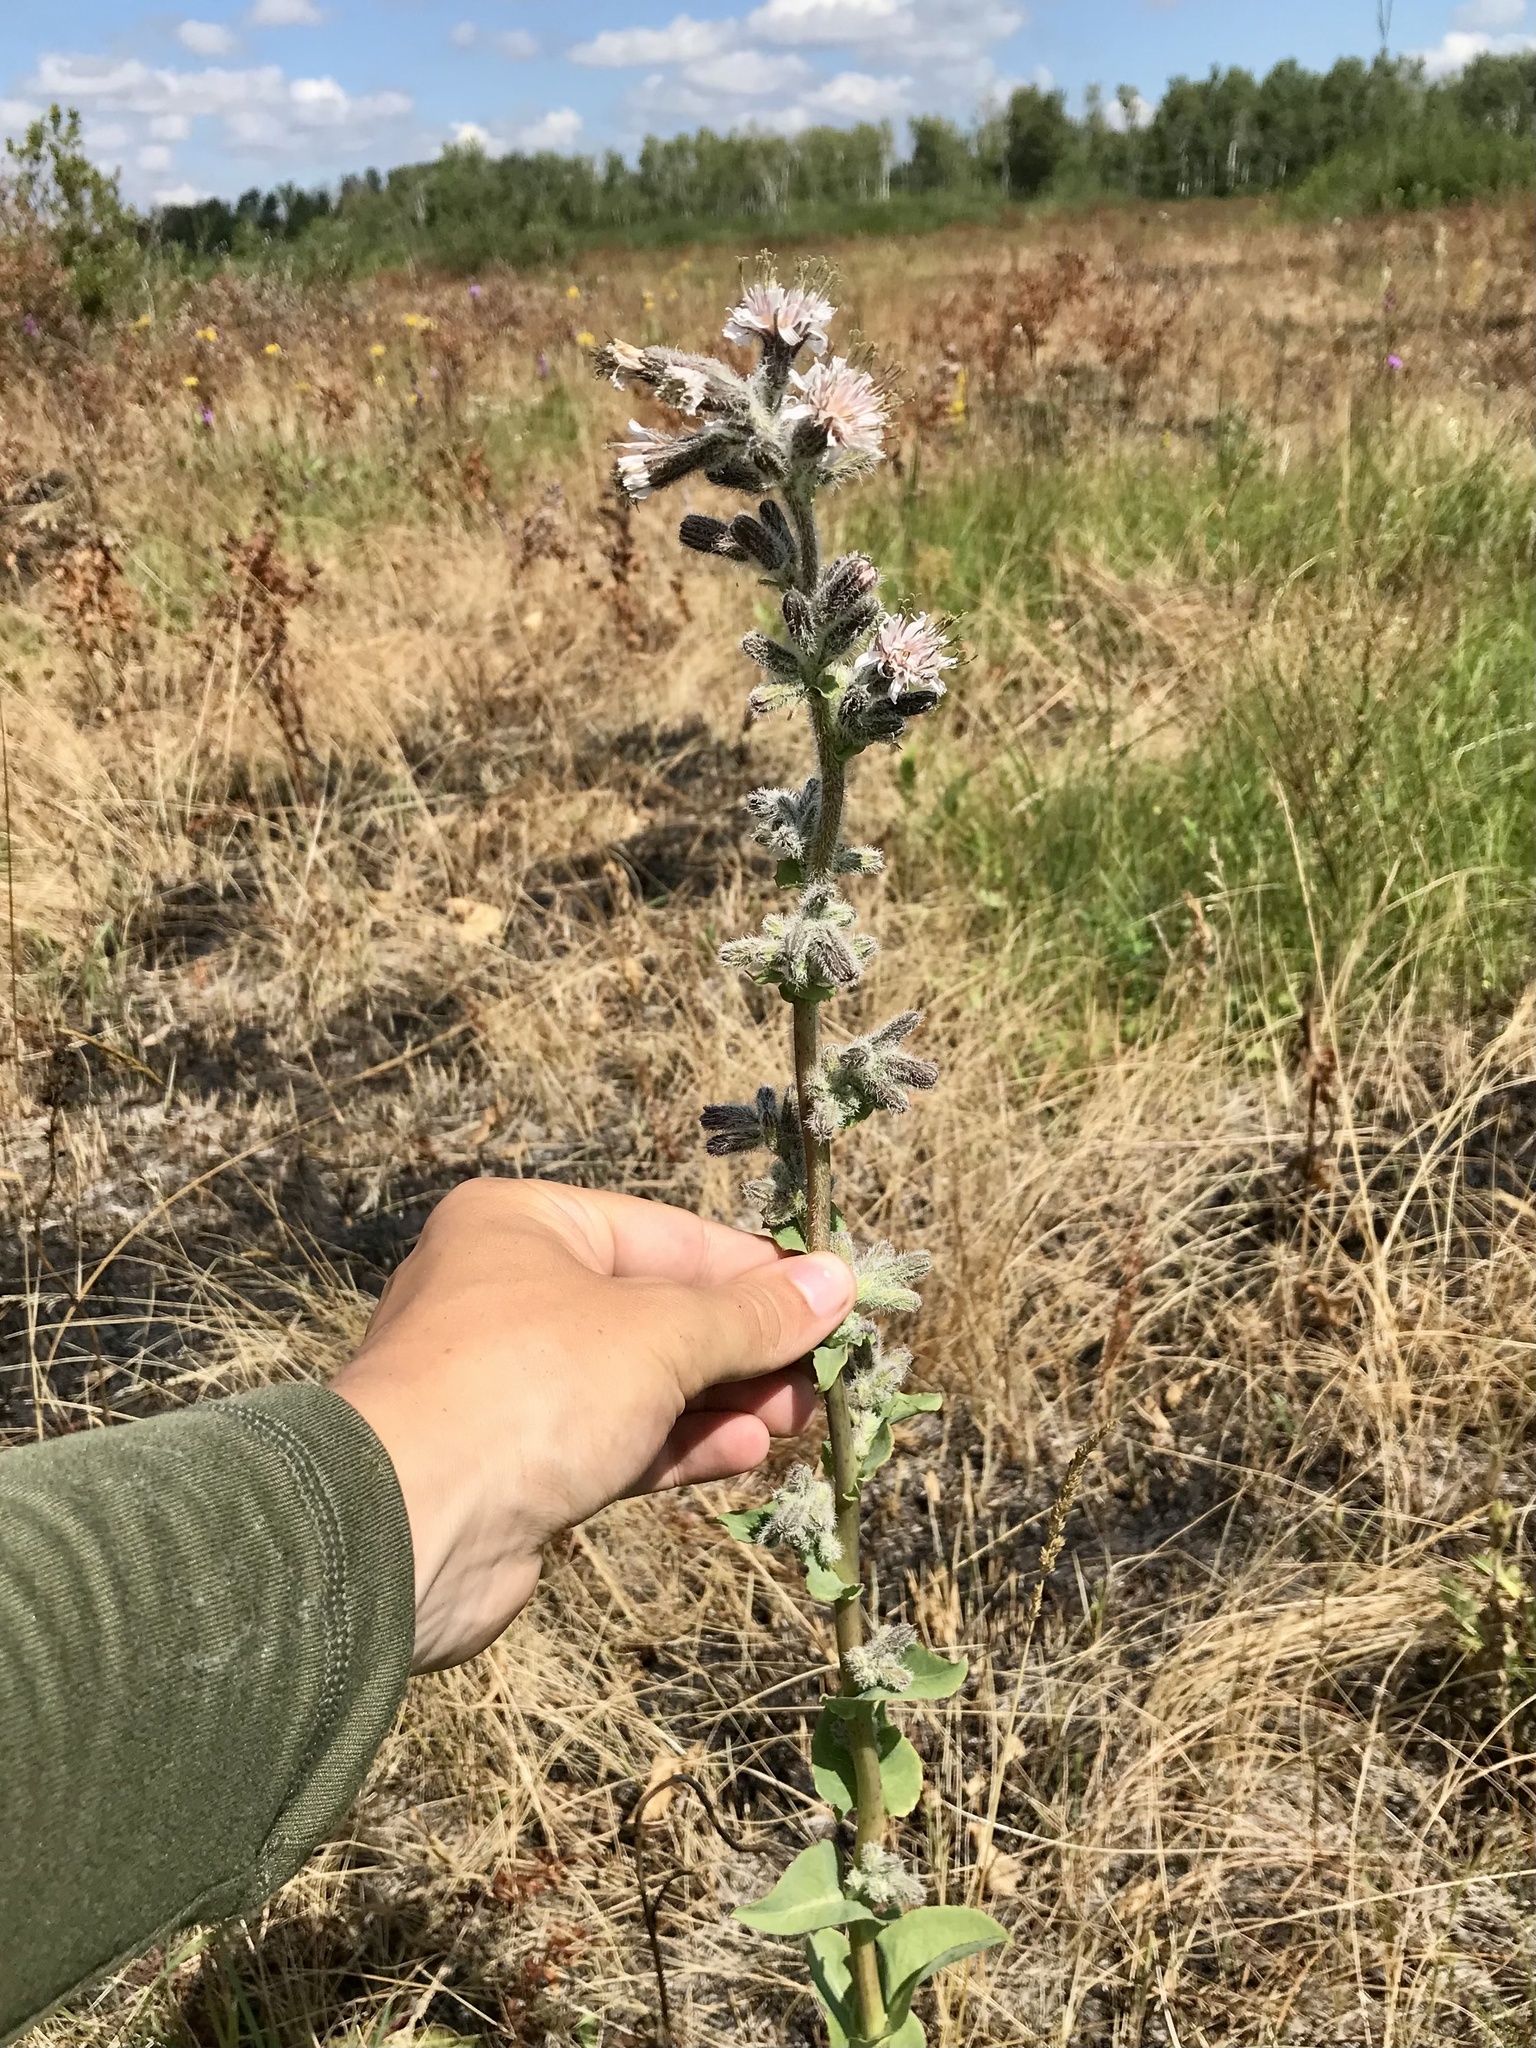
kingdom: Plantae
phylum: Tracheophyta
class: Magnoliopsida
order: Asterales
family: Asteraceae
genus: Nabalus
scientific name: Nabalus racemosus
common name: Glaucous white lettuce
